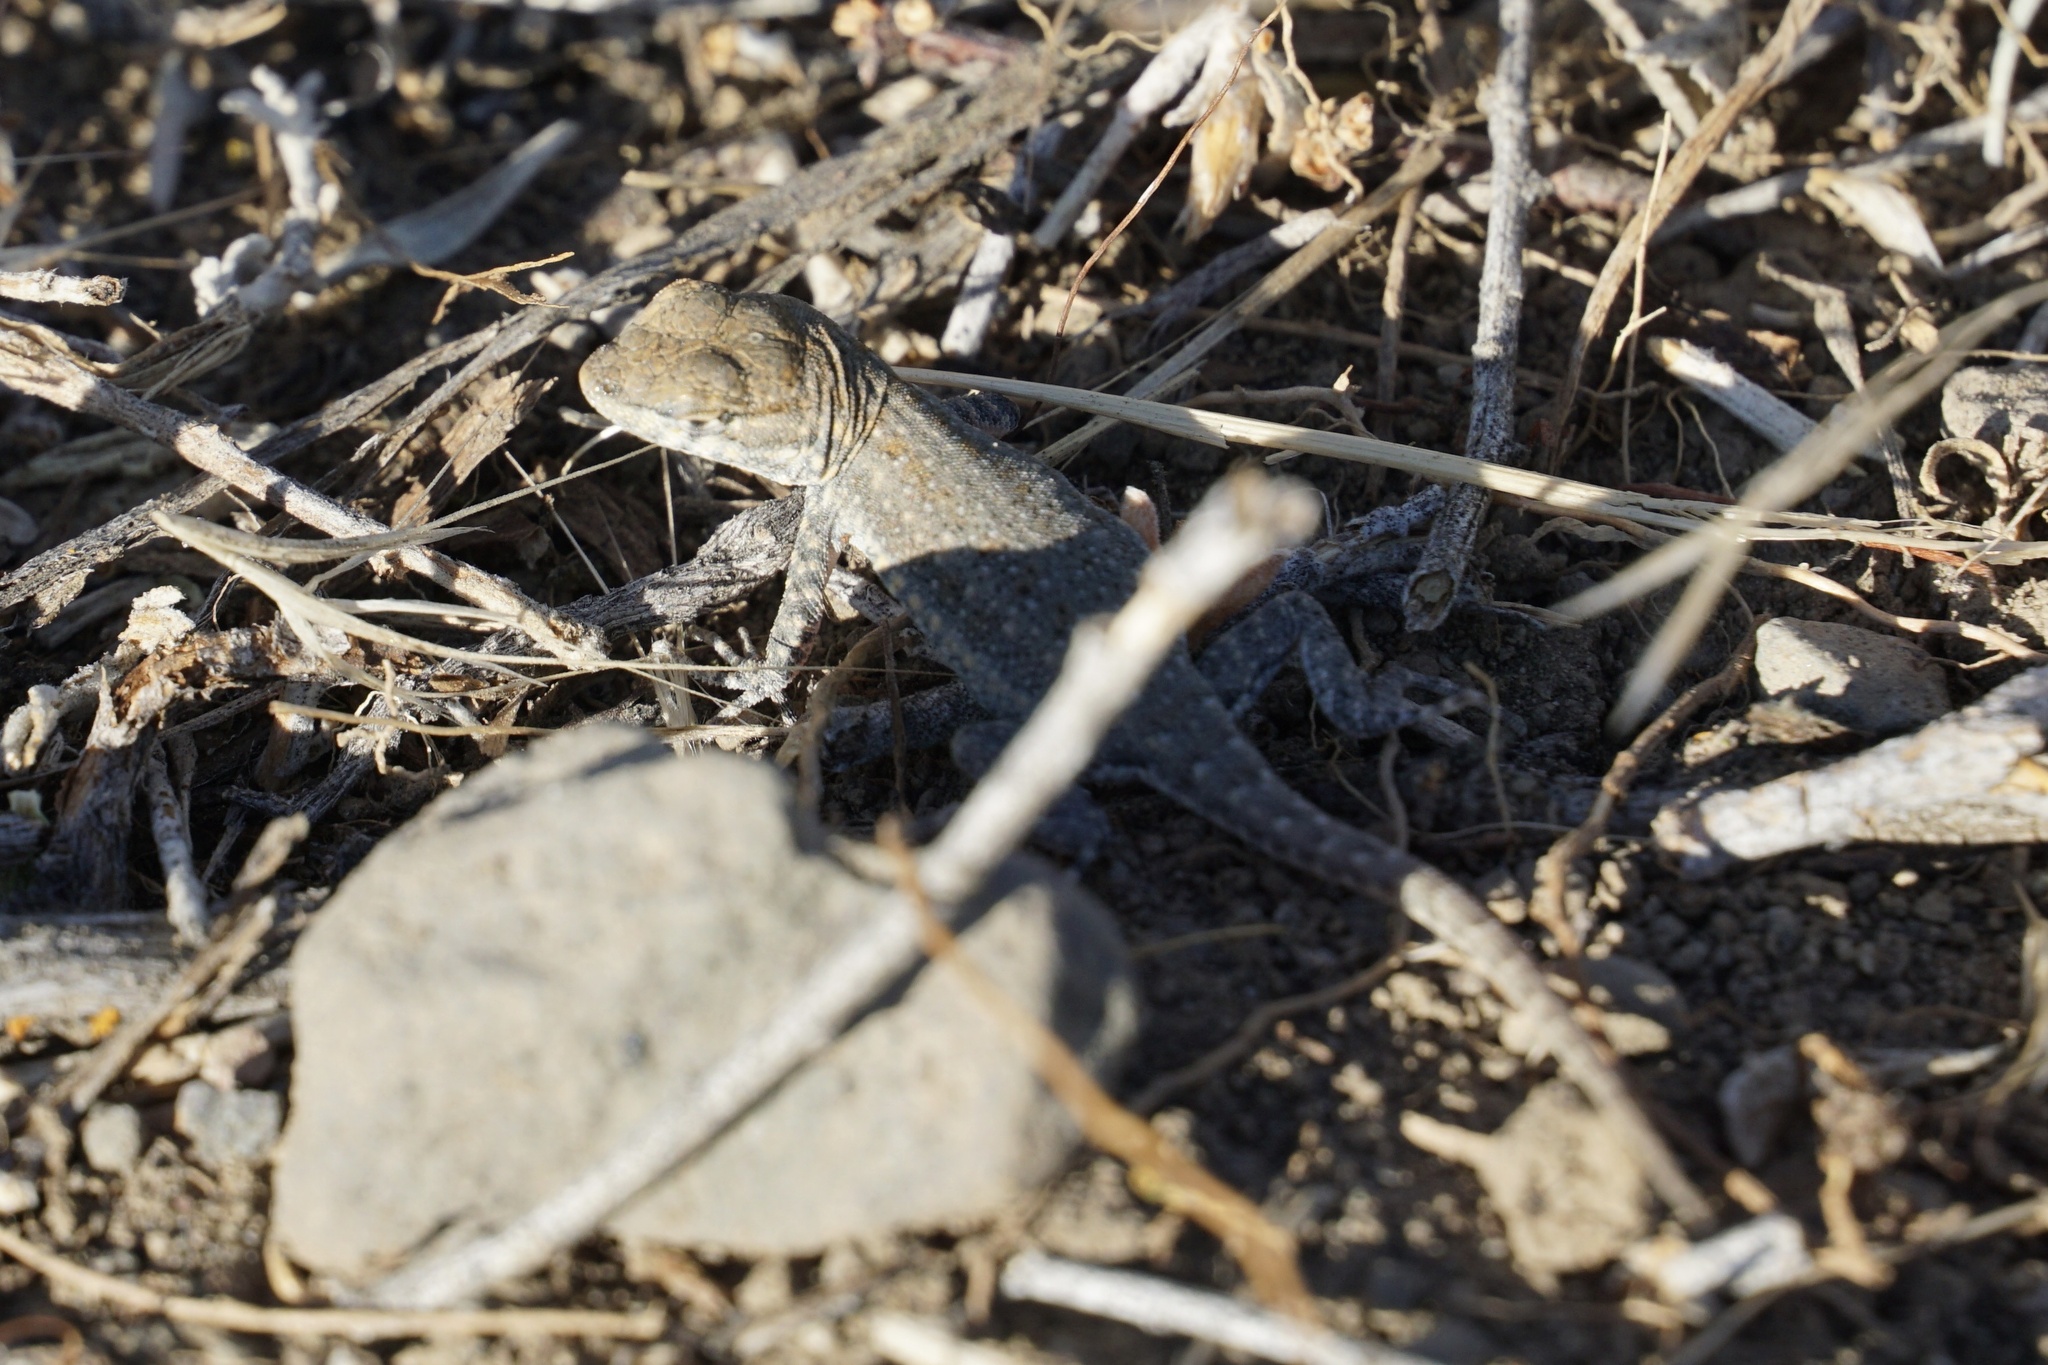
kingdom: Animalia
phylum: Chordata
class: Squamata
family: Phrynosomatidae
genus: Uta
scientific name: Uta stansburiana
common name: Side-blotched lizard
